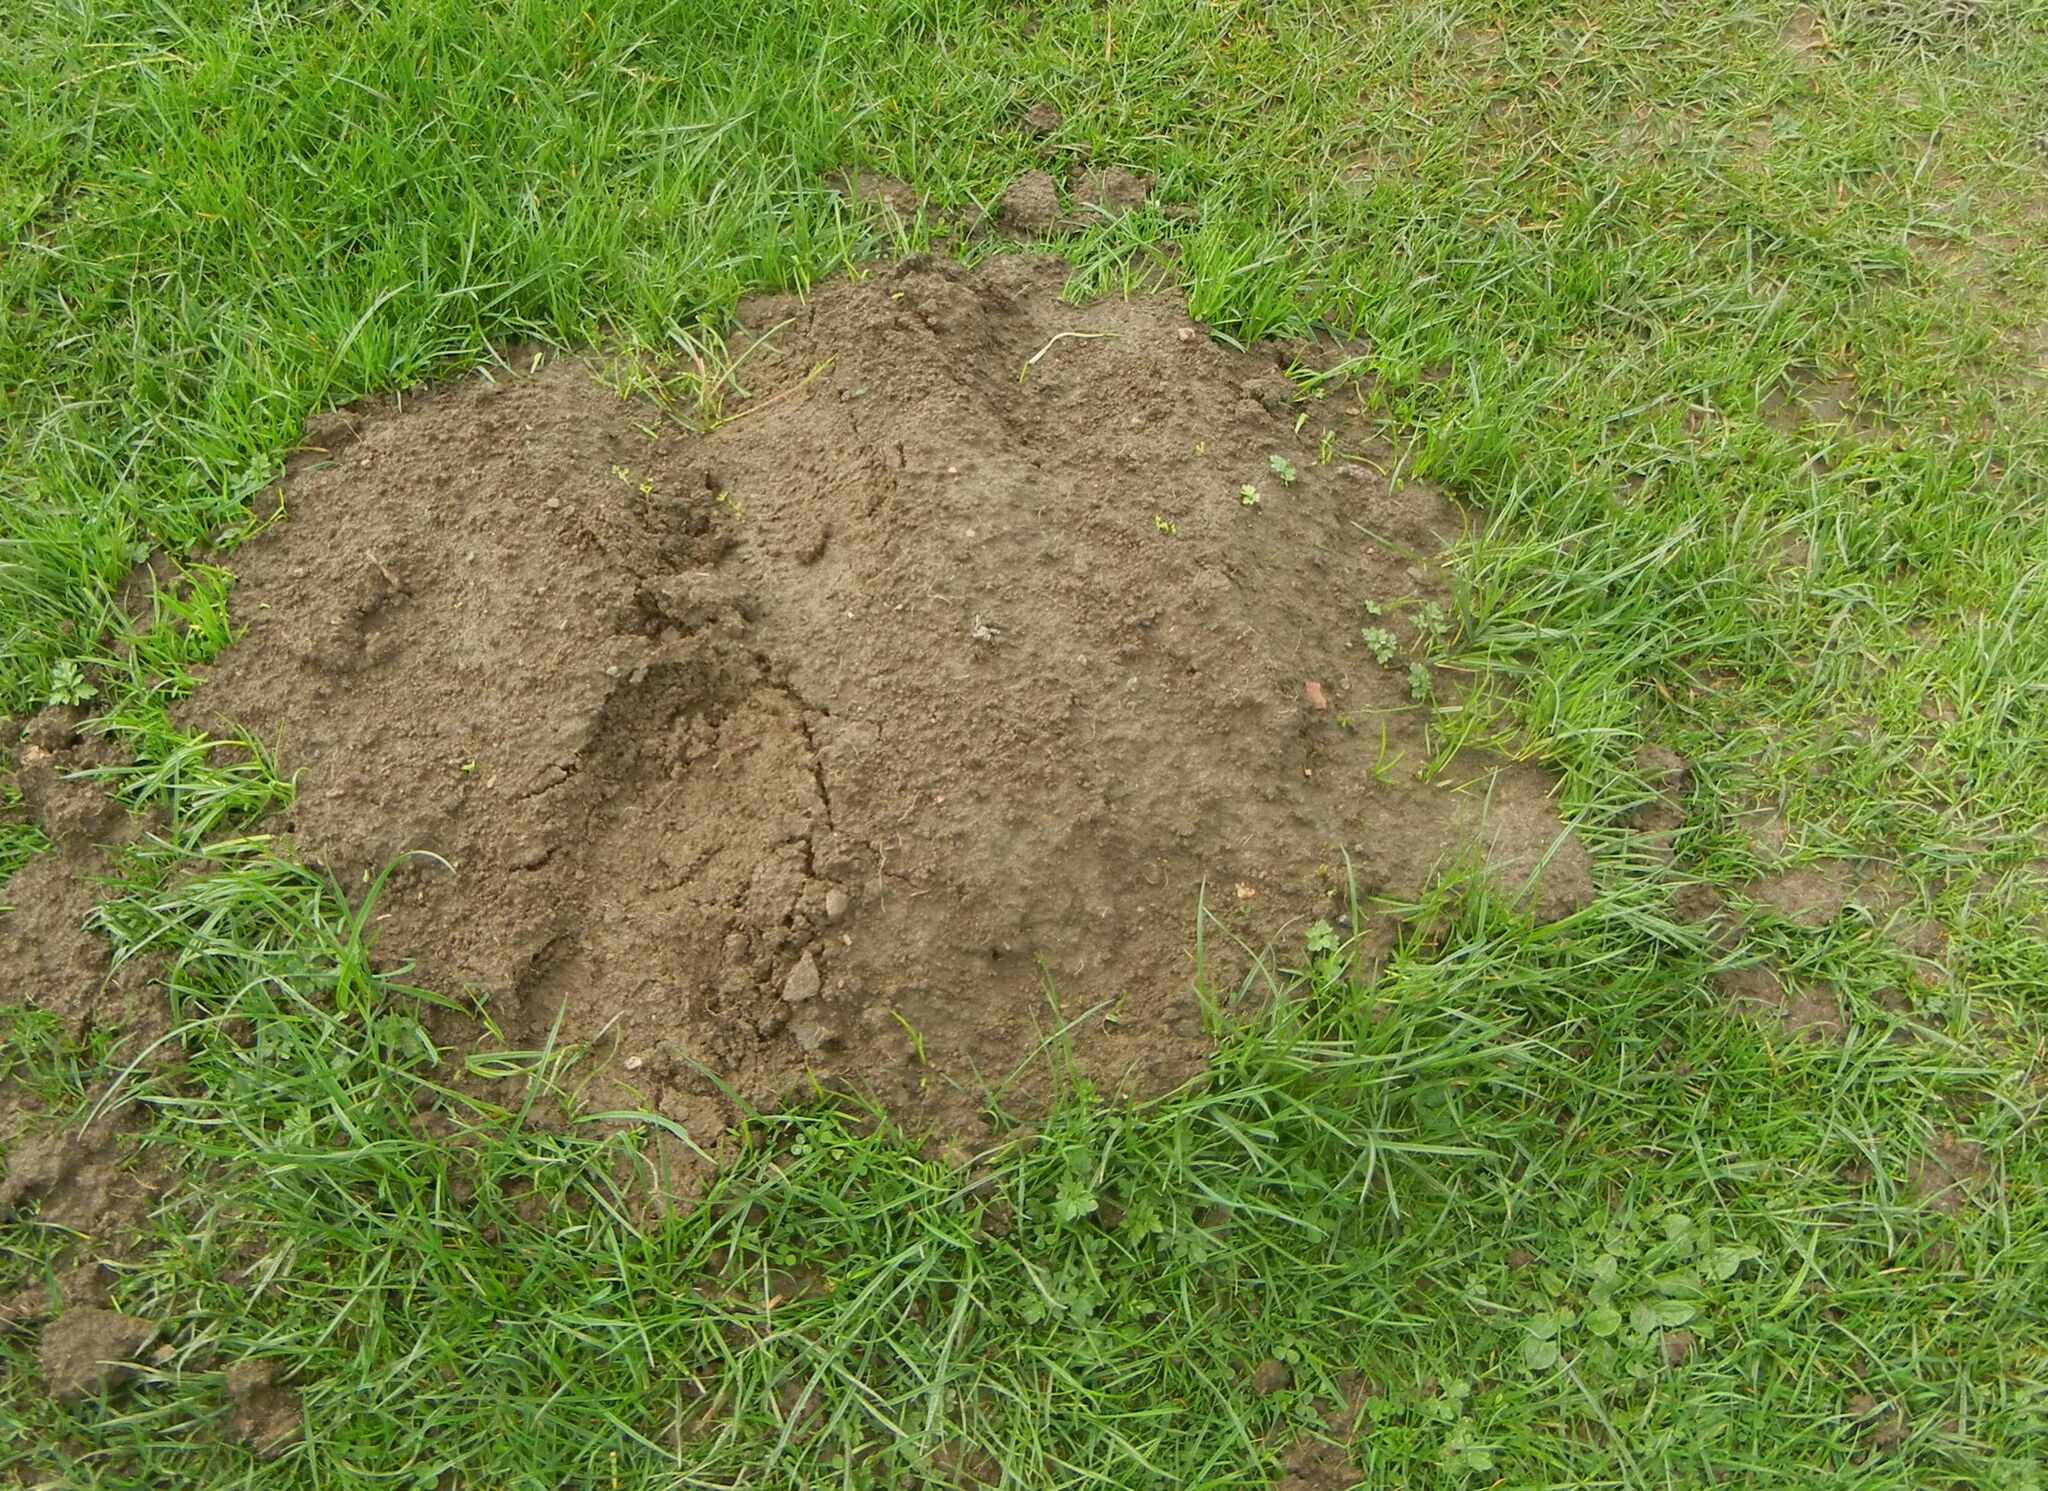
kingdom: Animalia
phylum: Chordata
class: Mammalia
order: Soricomorpha
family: Talpidae
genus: Talpa
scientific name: Talpa europaea
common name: European mole
